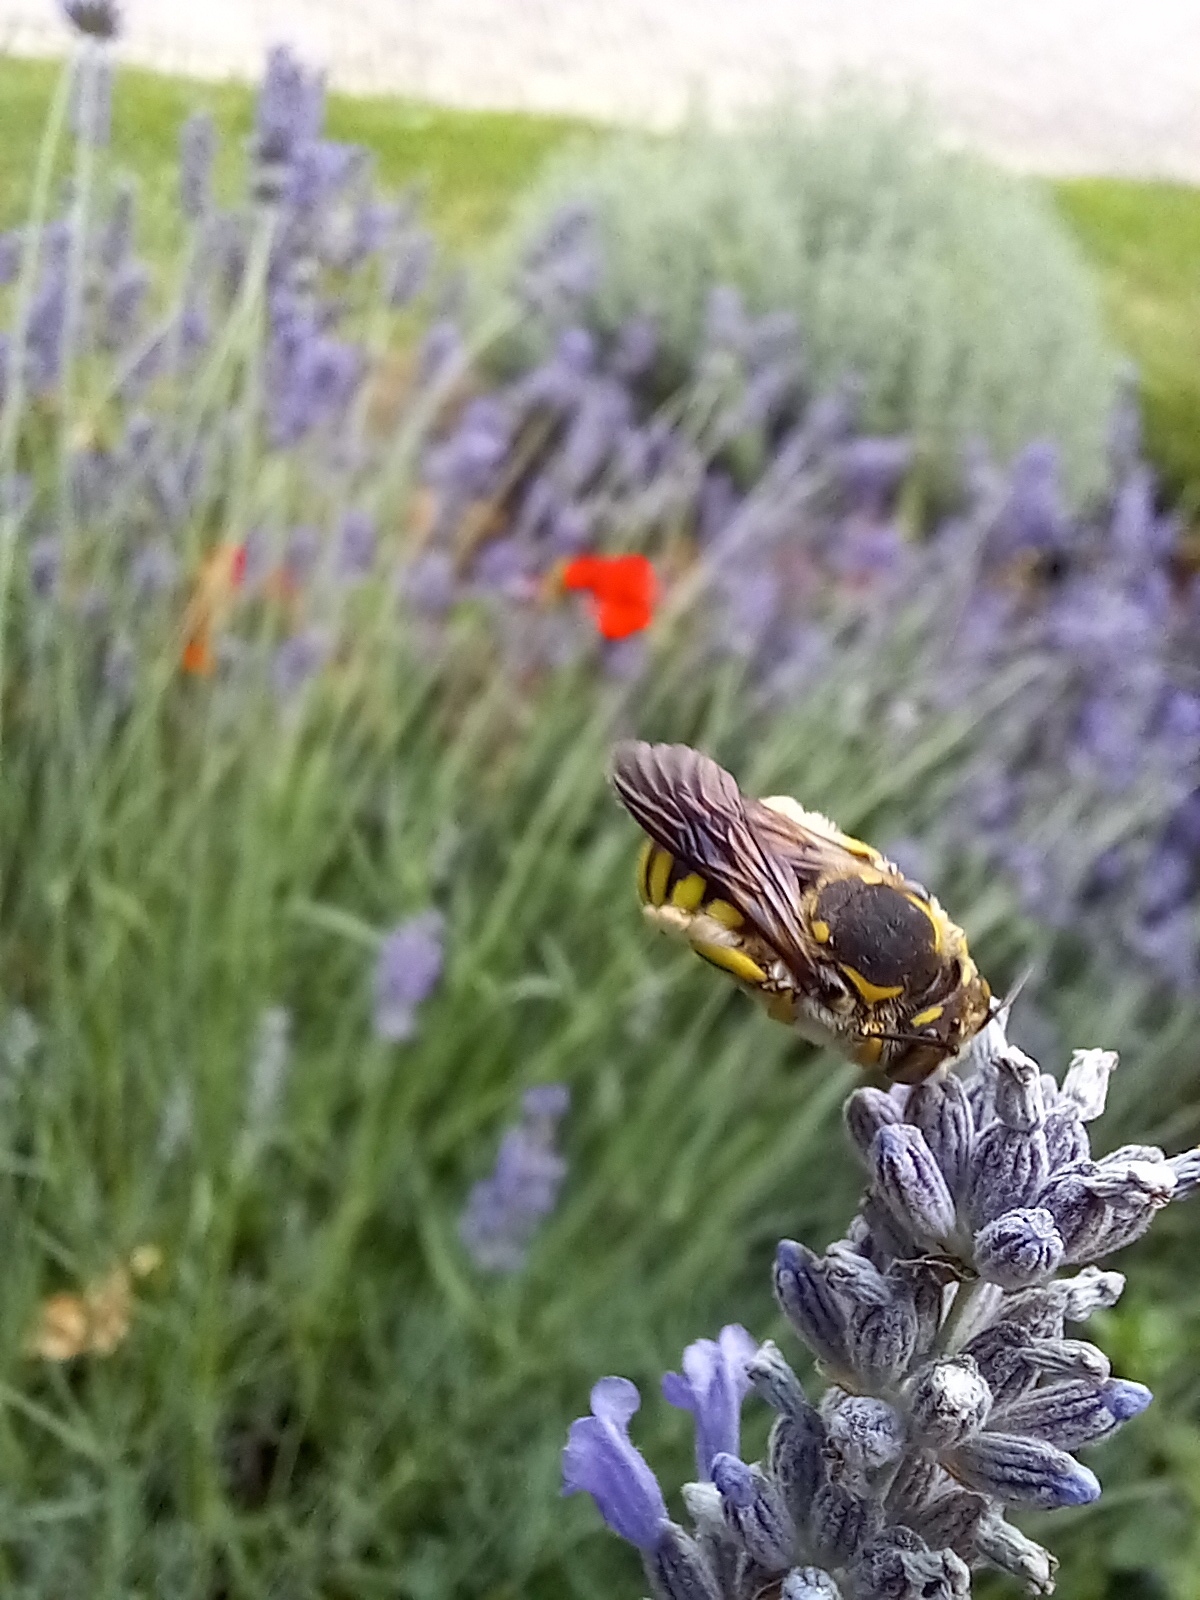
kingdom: Animalia
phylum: Arthropoda
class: Insecta
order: Hymenoptera
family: Megachilidae
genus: Anthidium
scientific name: Anthidium florentinum
